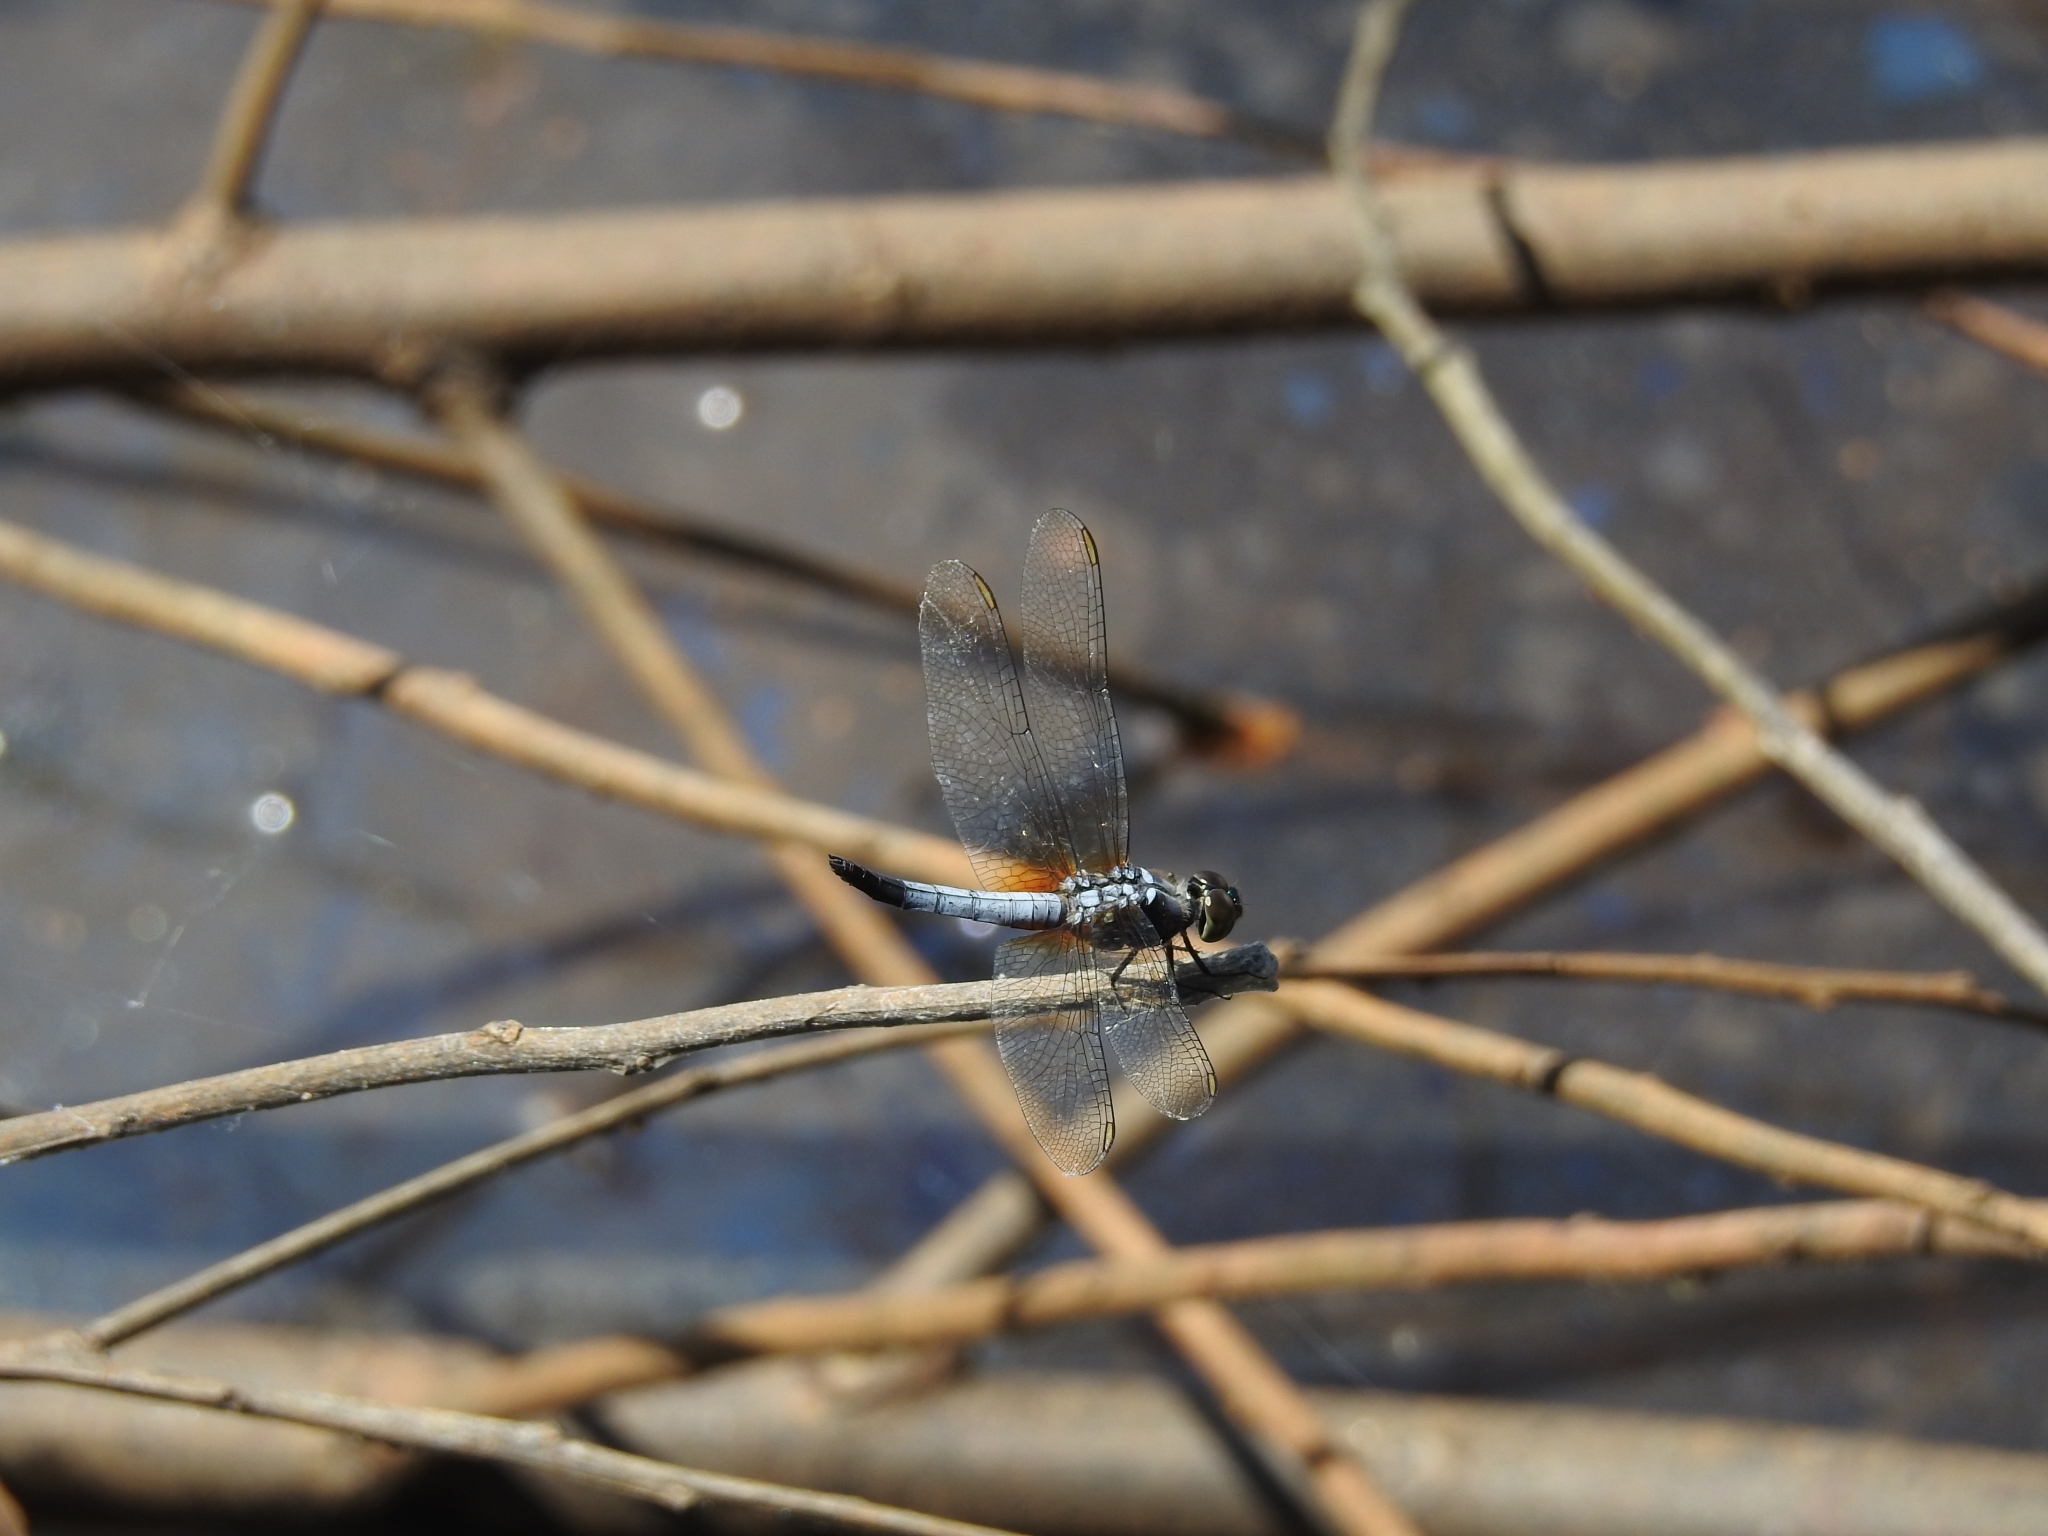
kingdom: Animalia
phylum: Arthropoda
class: Insecta
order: Odonata
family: Libellulidae
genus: Brachydiplax
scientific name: Brachydiplax chalybea
